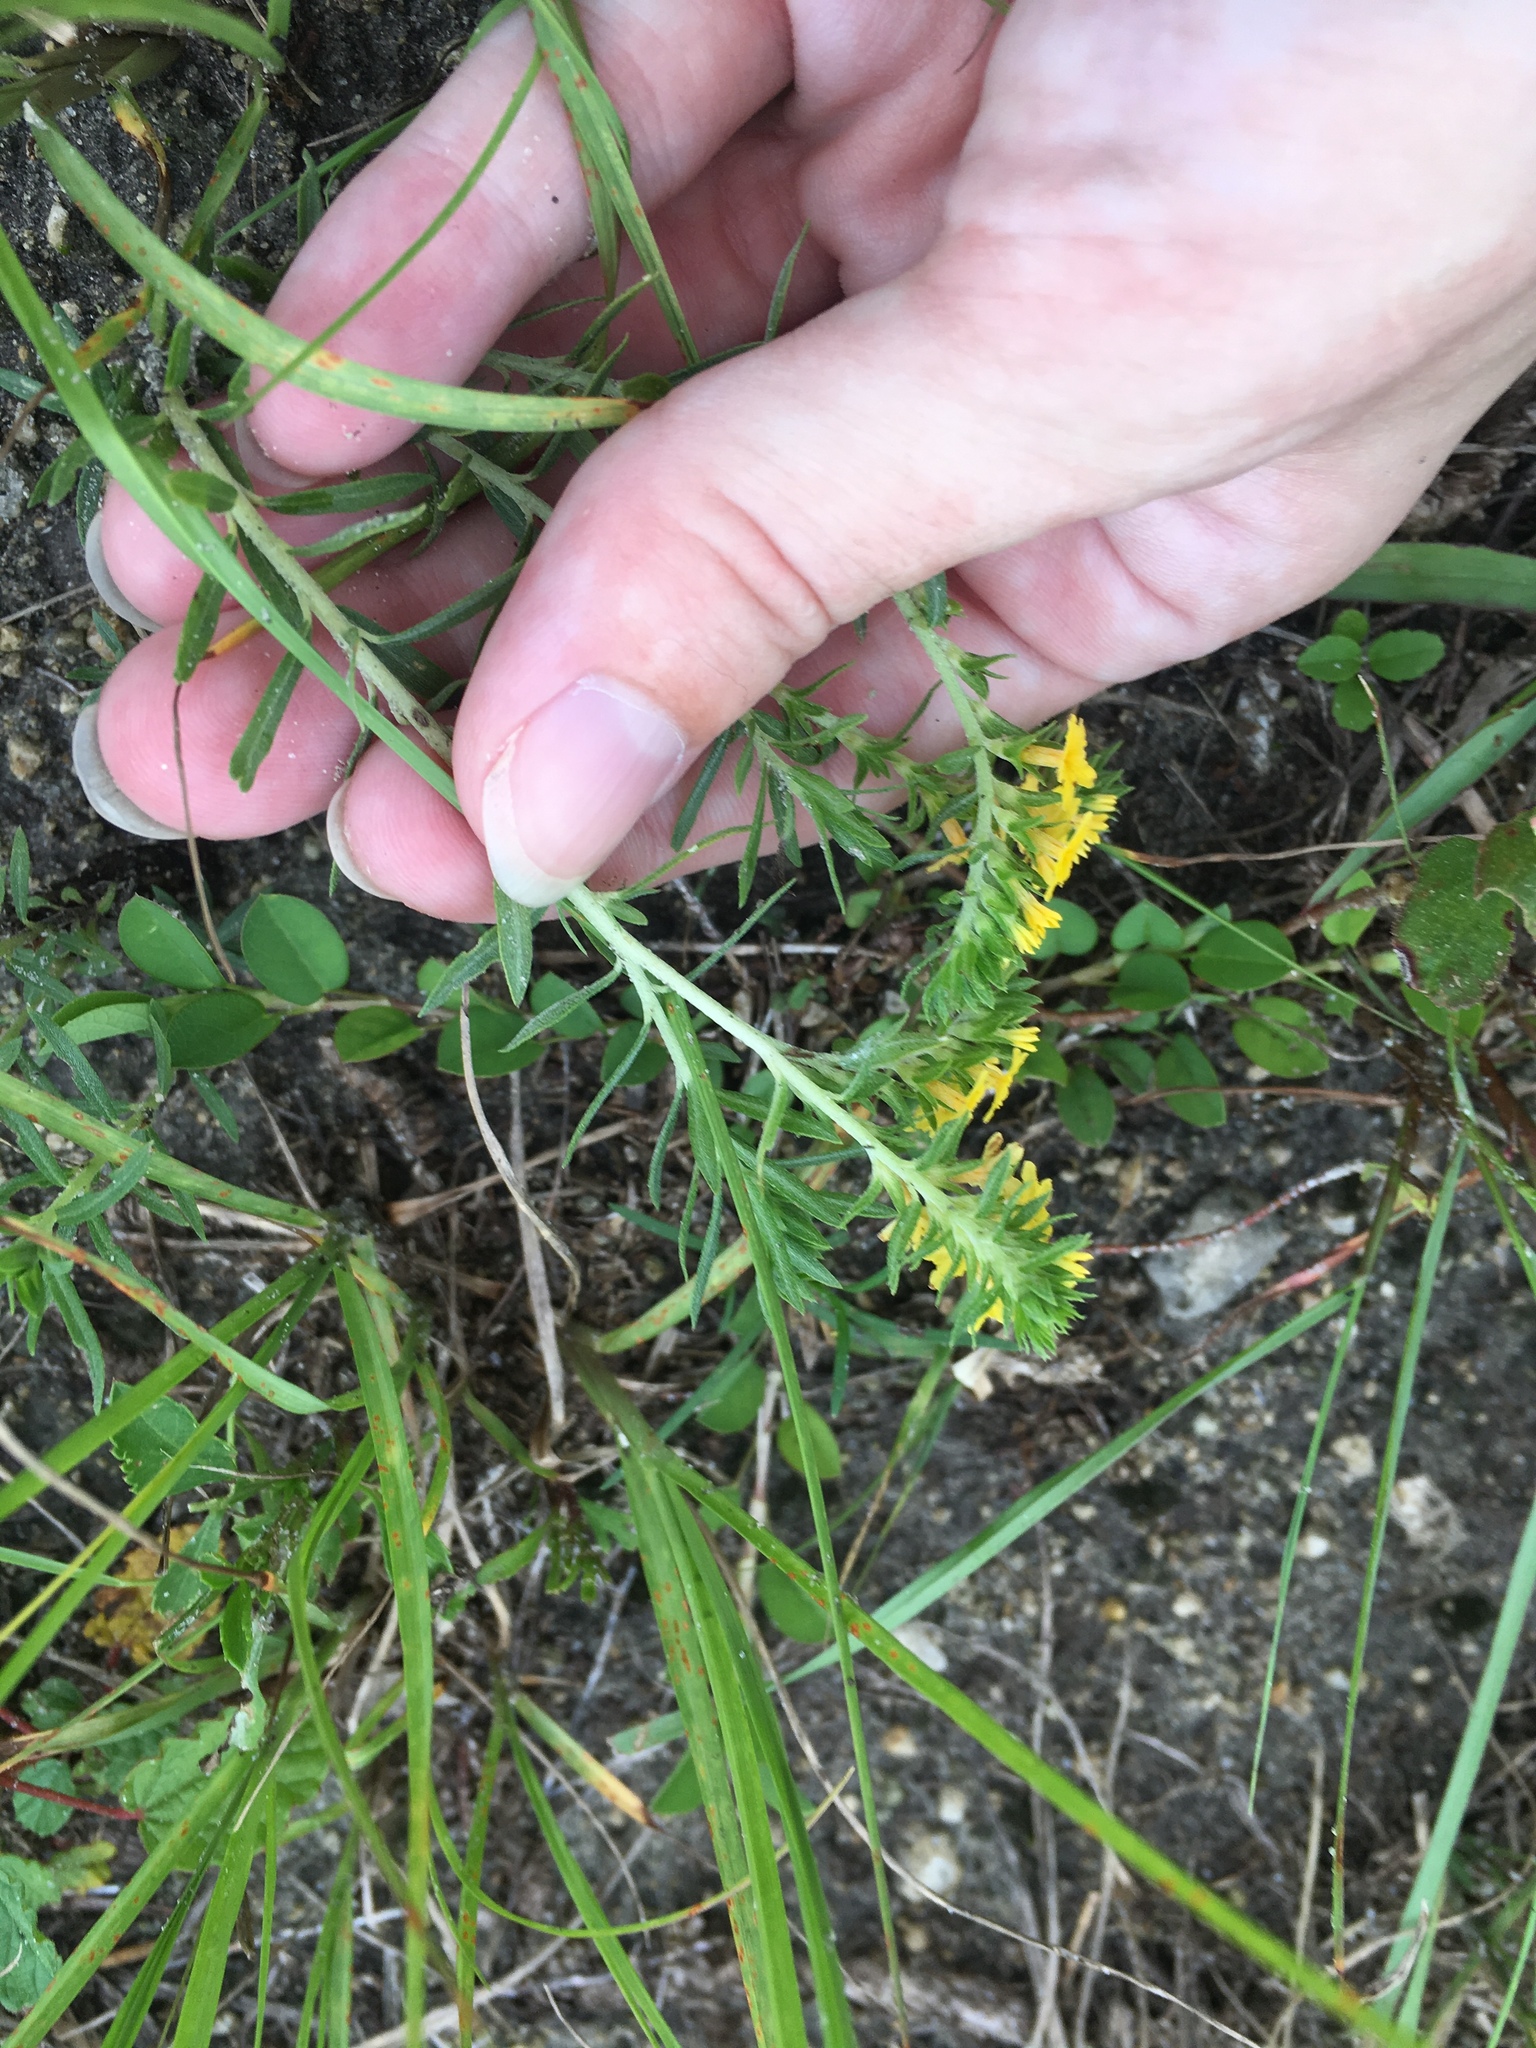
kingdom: Plantae
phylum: Tracheophyta
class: Magnoliopsida
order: Boraginales
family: Heliotropiaceae
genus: Euploca
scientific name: Euploca polyphylla
